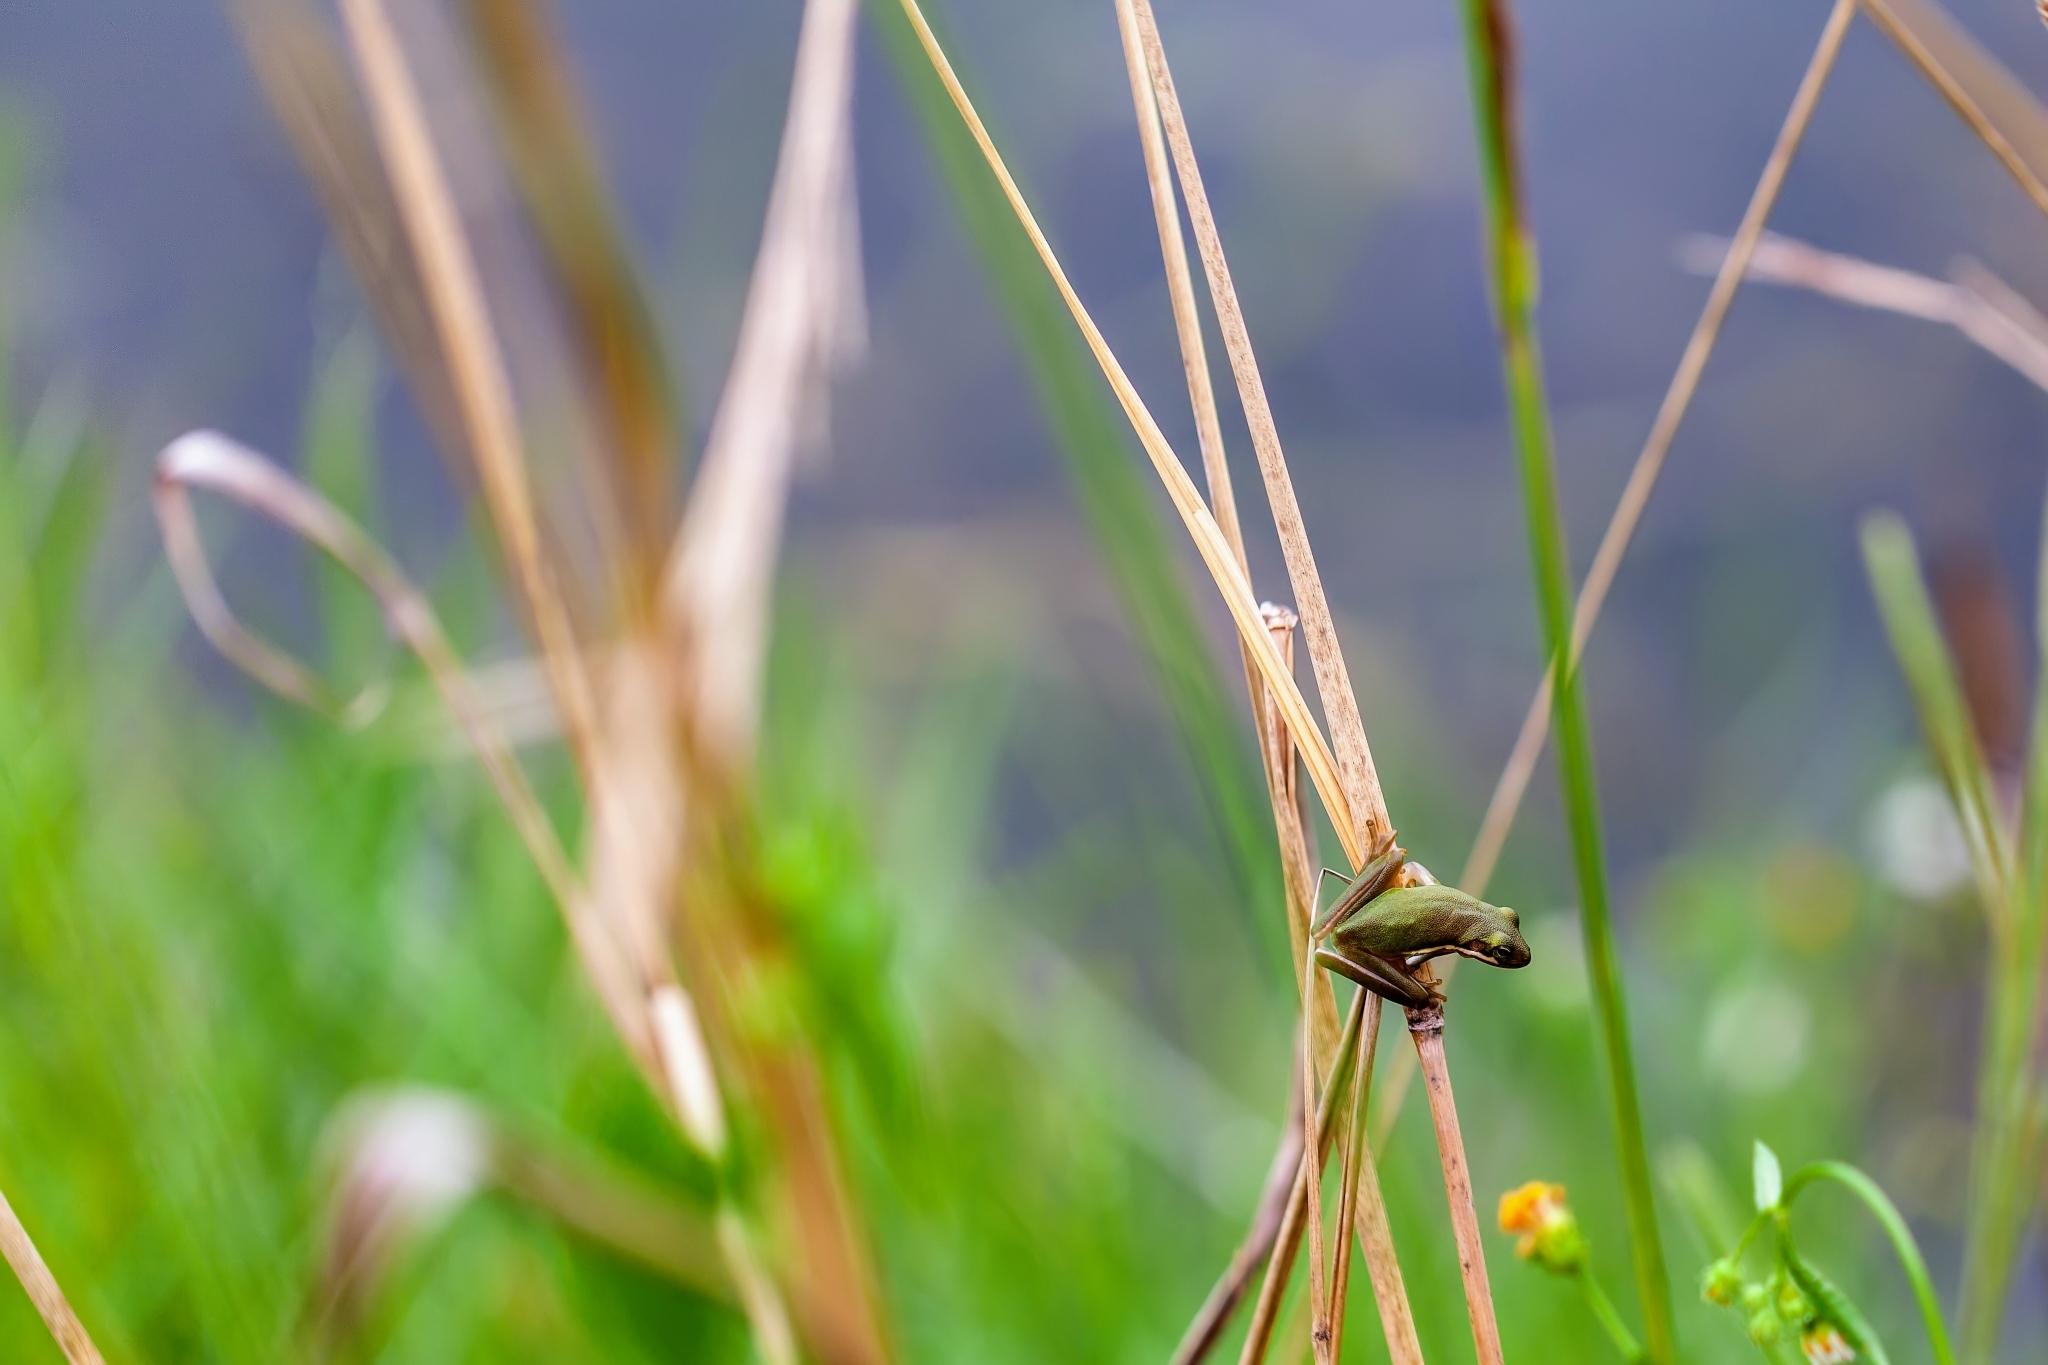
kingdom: Animalia
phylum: Chordata
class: Amphibia
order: Anura
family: Hylidae
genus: Dryophytes
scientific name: Dryophytes cinereus
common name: Green treefrog
